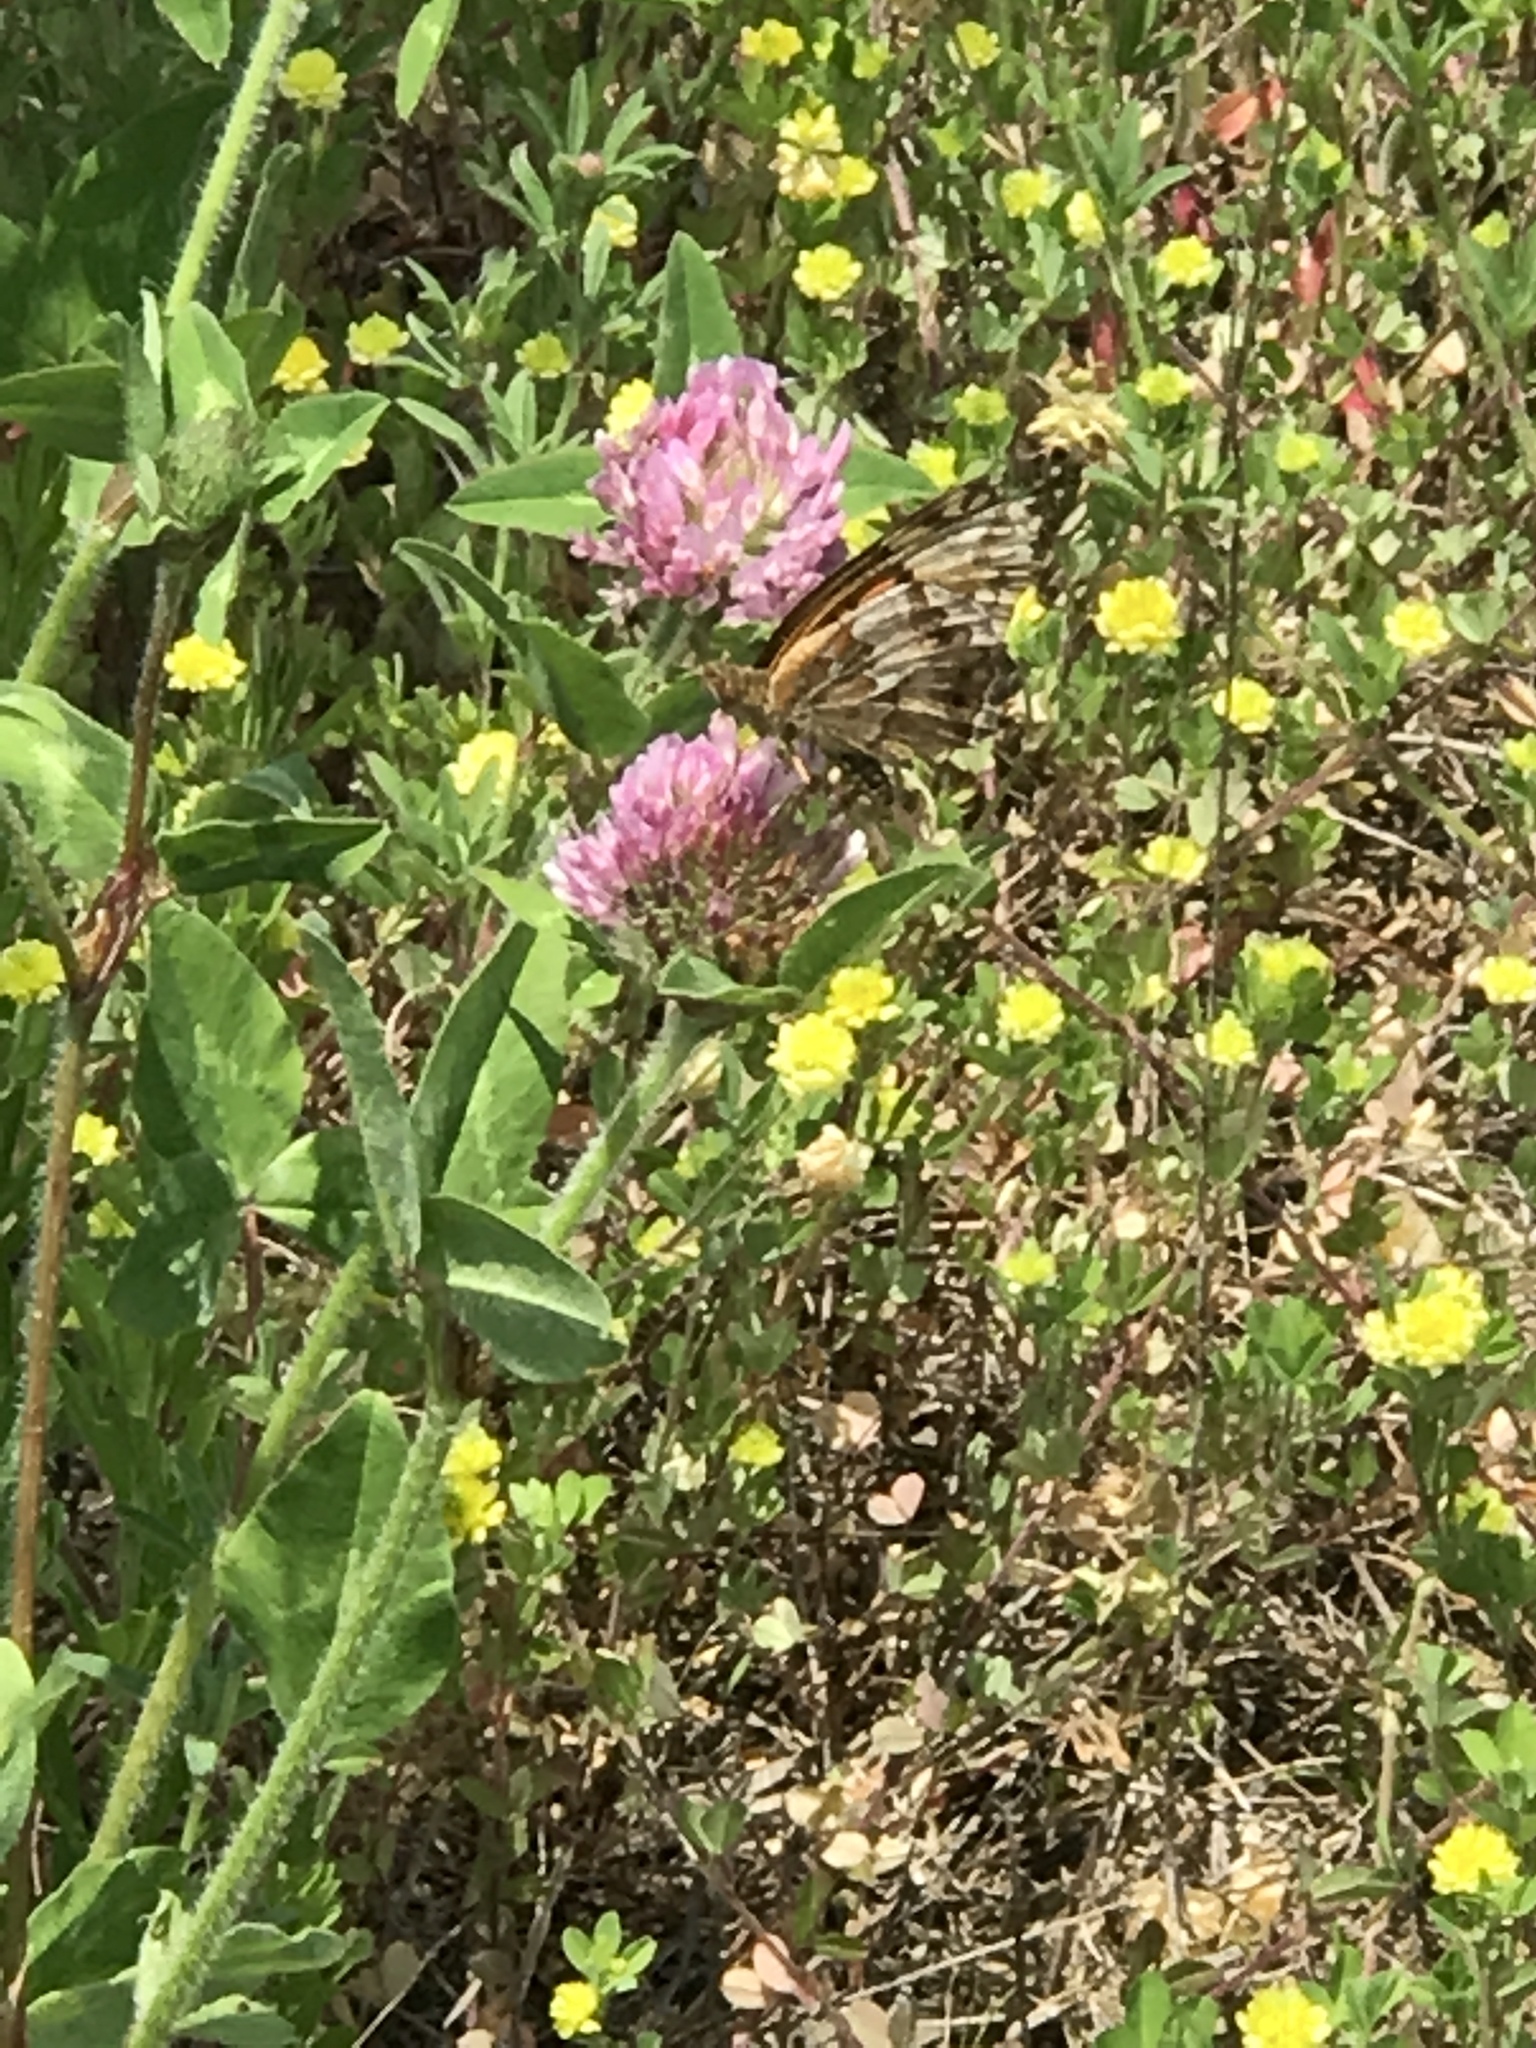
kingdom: Plantae
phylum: Tracheophyta
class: Magnoliopsida
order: Fabales
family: Fabaceae
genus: Trifolium
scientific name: Trifolium pratense
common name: Red clover
